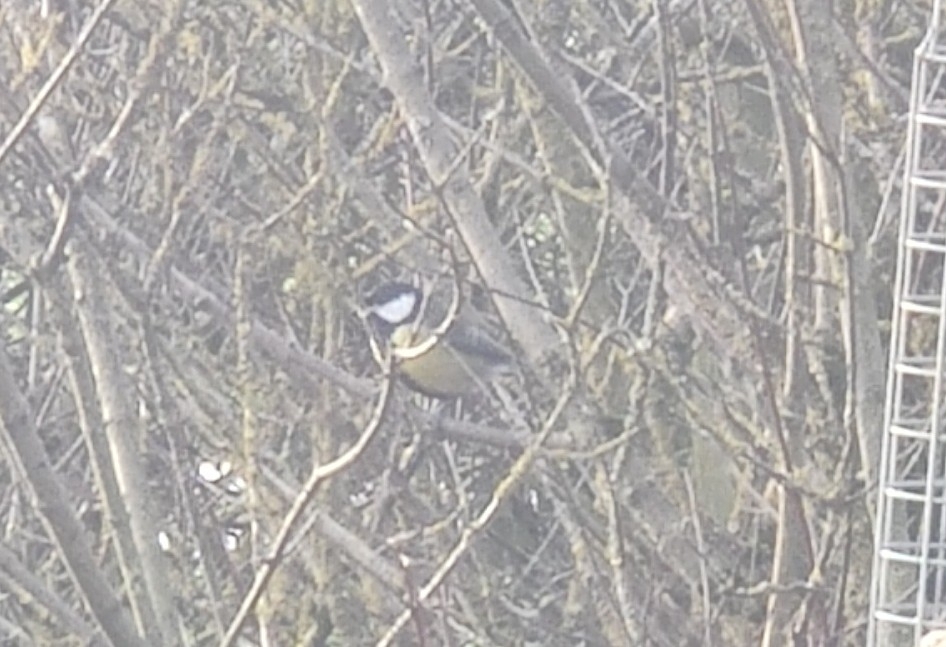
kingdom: Animalia
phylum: Chordata
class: Aves
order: Passeriformes
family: Paridae
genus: Parus
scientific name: Parus major
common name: Great tit
